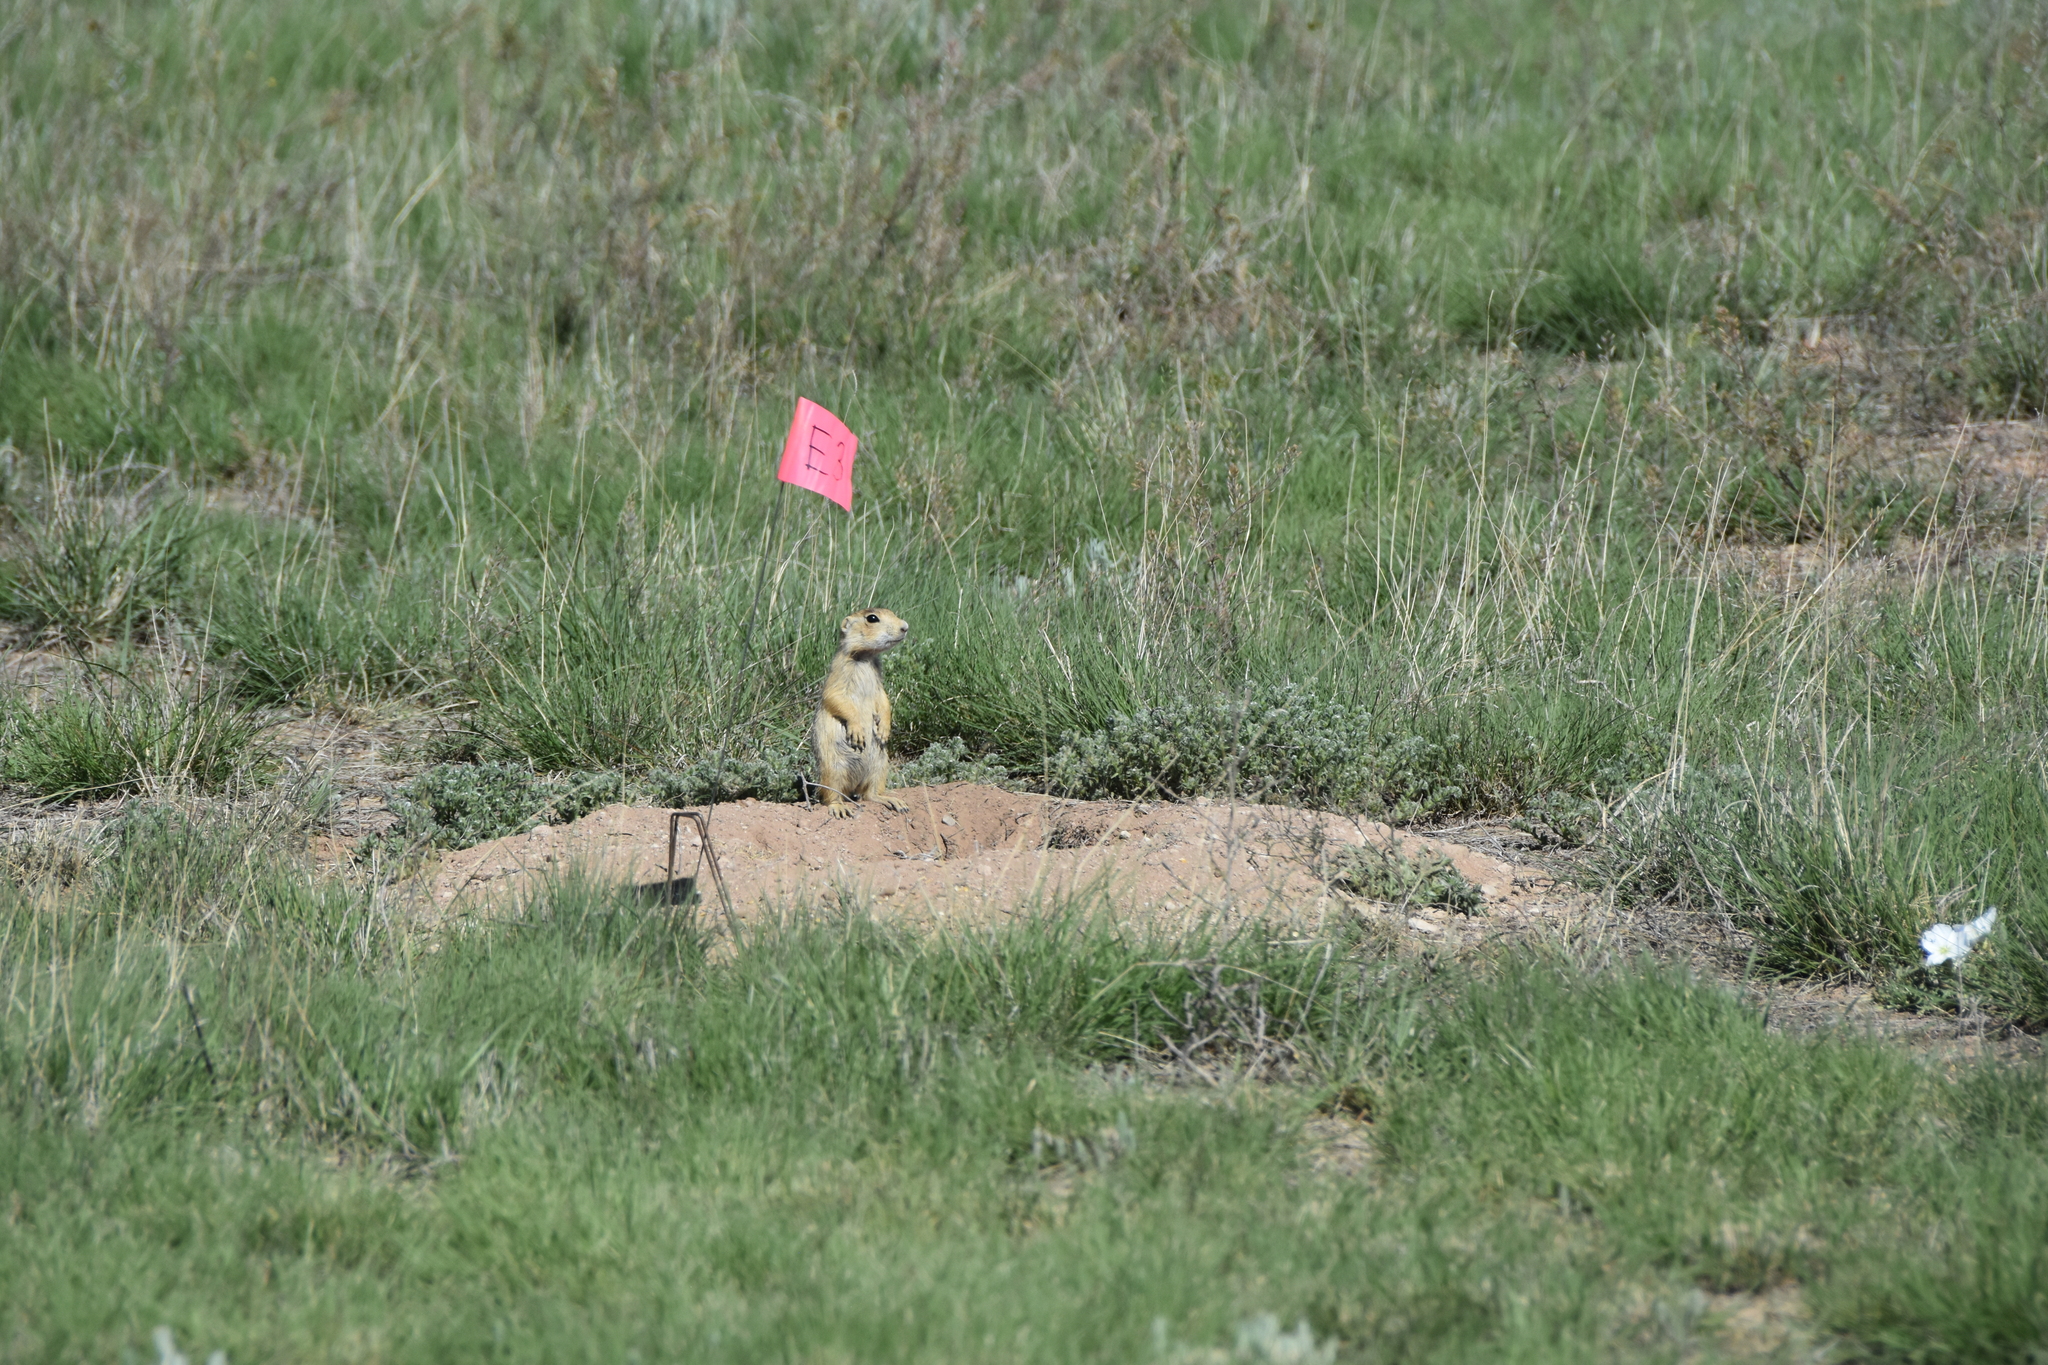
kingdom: Animalia
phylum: Chordata
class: Mammalia
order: Rodentia
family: Sciuridae
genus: Cynomys
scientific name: Cynomys gunnisoni
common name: Gunnison's prairie dog
